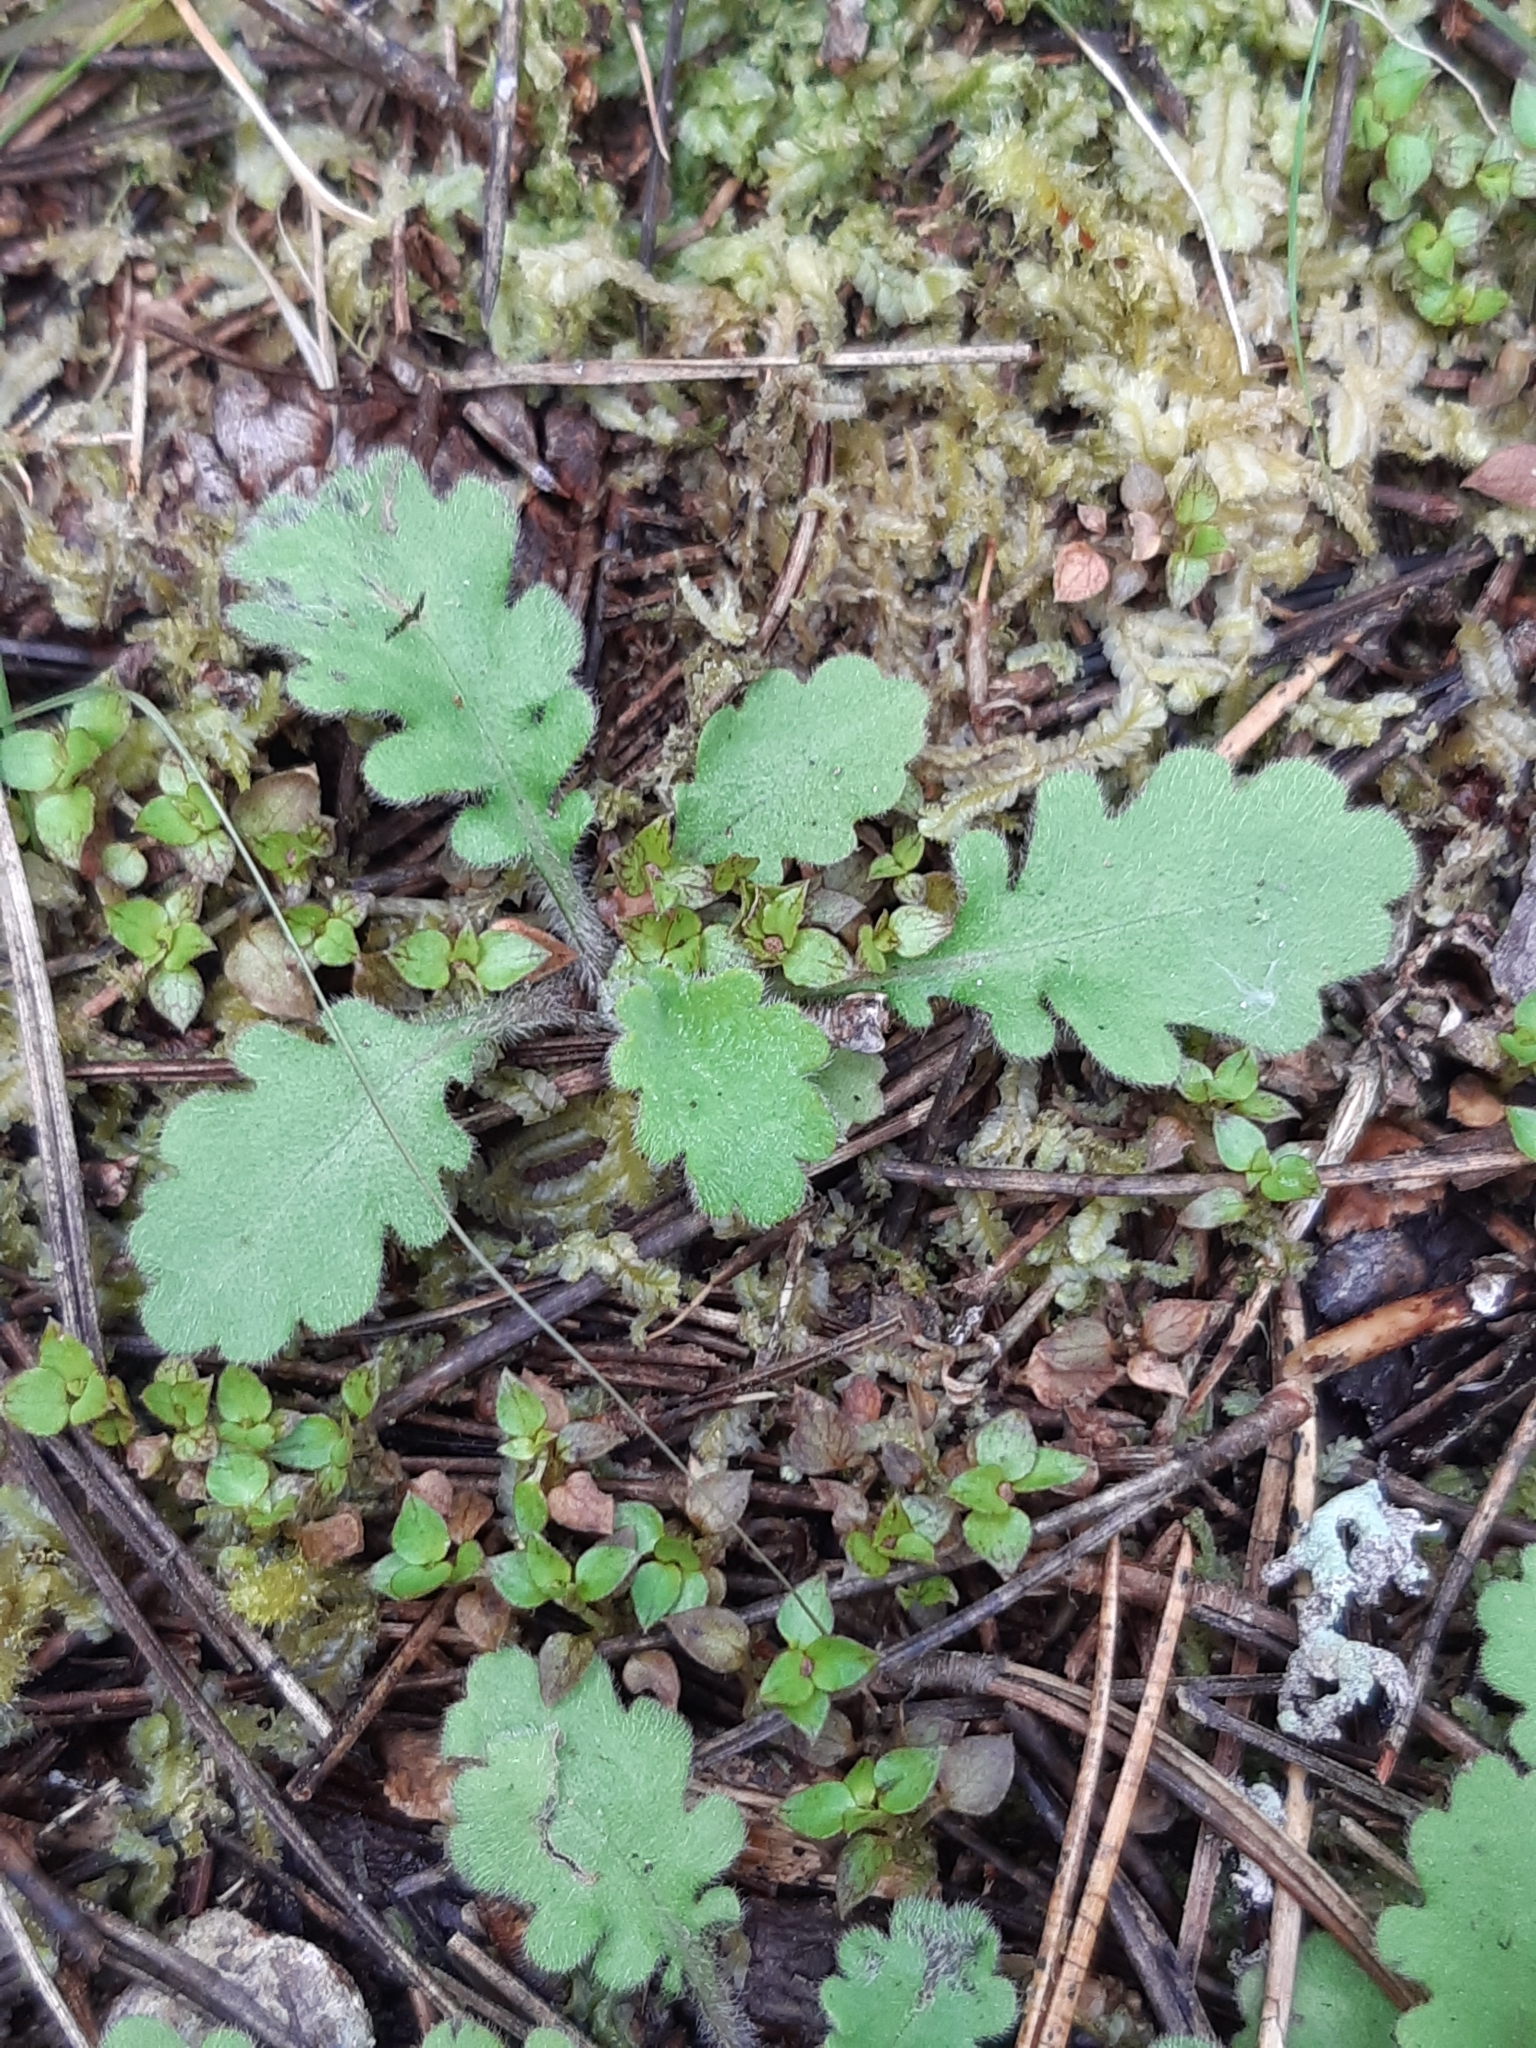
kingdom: Plantae
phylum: Tracheophyta
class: Magnoliopsida
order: Asterales
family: Asteraceae
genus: Lagenophora
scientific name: Lagenophora pinnatifida
